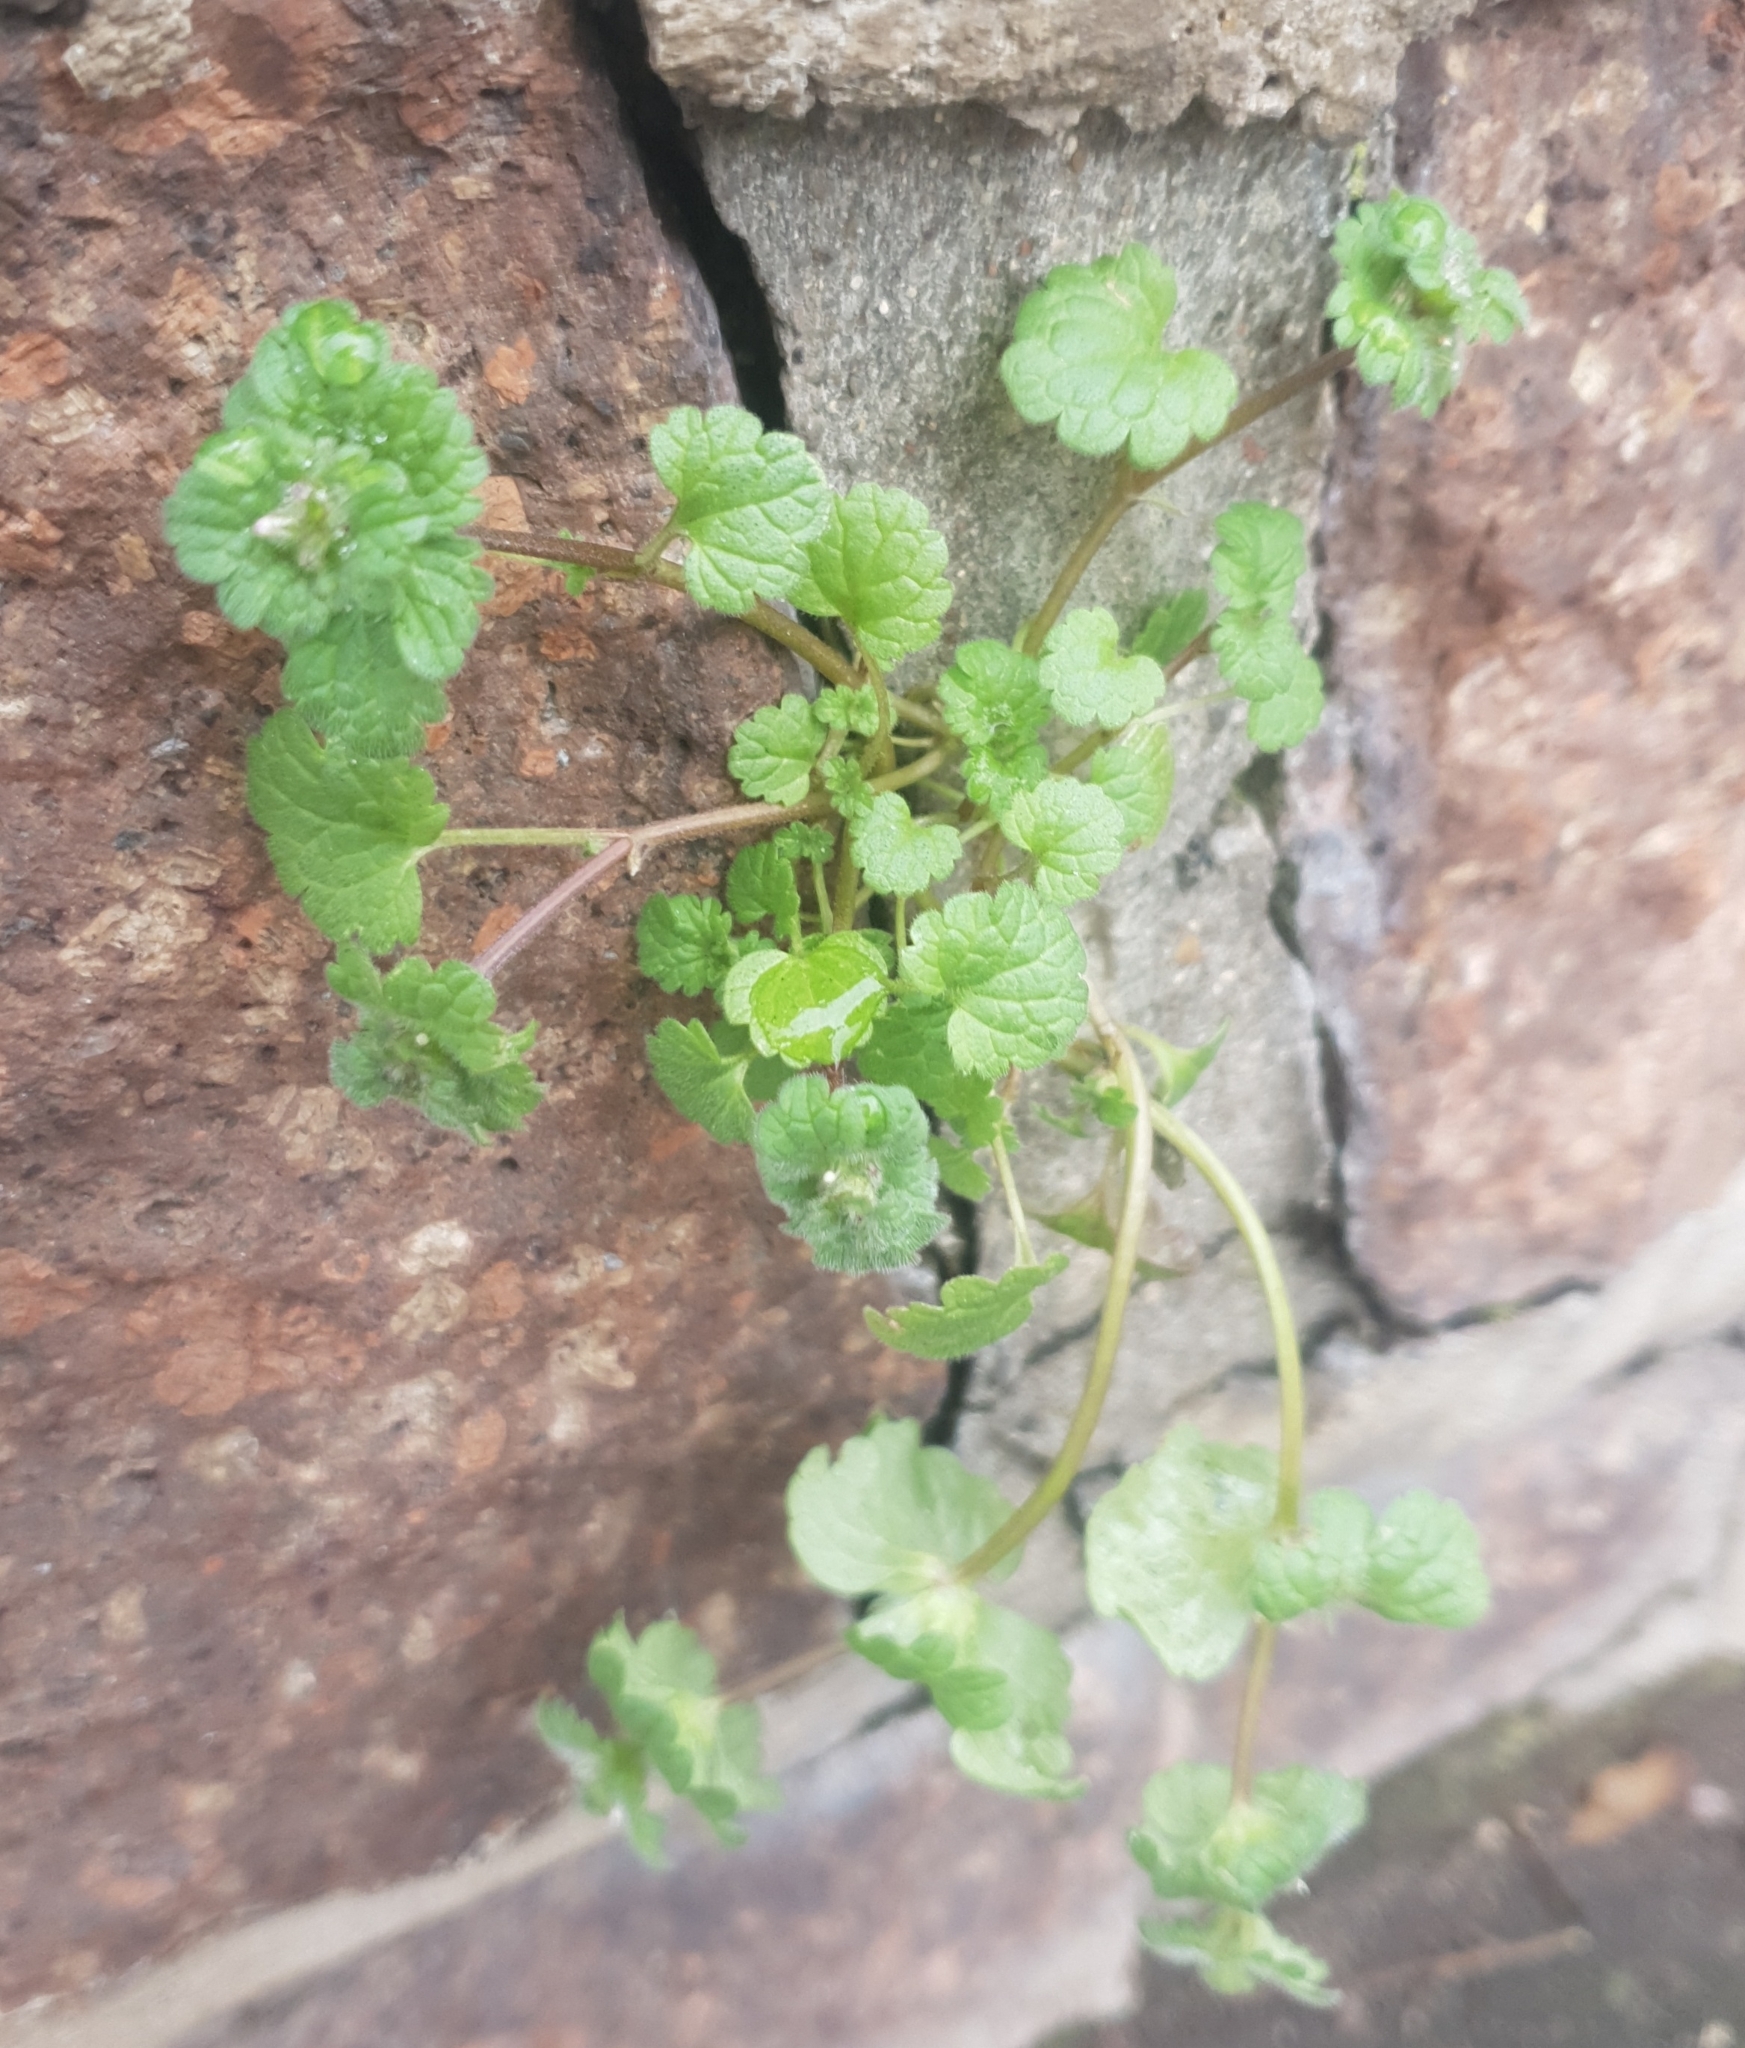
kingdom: Plantae
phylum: Tracheophyta
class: Magnoliopsida
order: Lamiales
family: Lamiaceae
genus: Lamium
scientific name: Lamium amplexicaule
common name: Henbit dead-nettle
